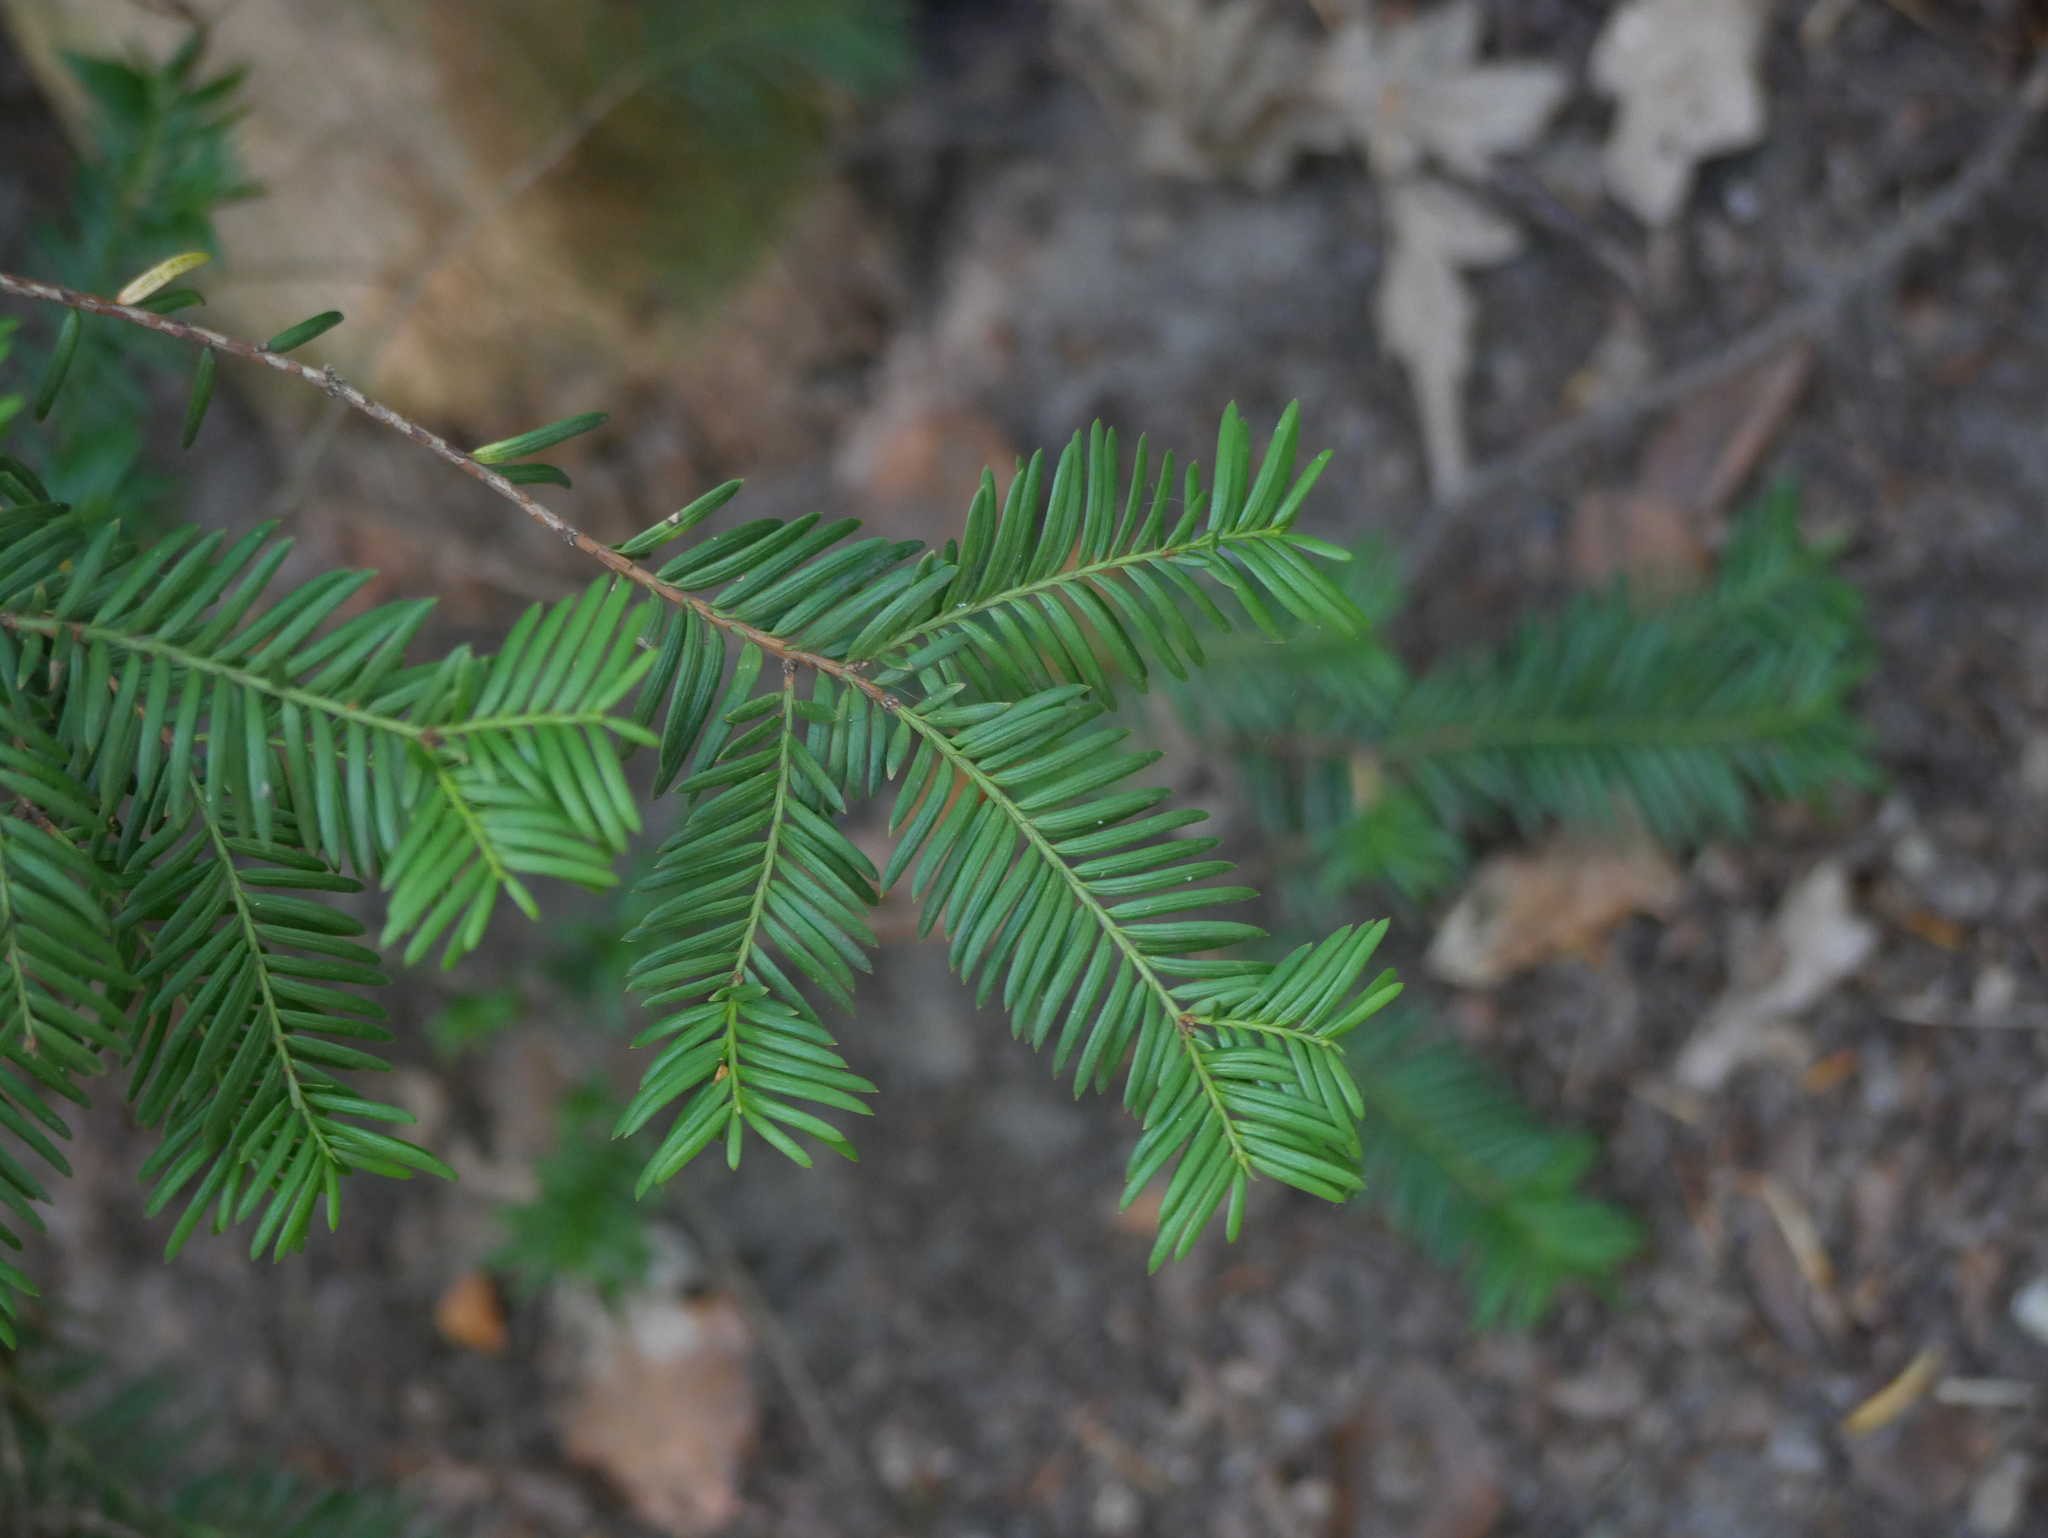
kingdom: Plantae
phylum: Tracheophyta
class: Pinopsida
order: Pinales
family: Taxaceae
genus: Taxus
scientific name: Taxus baccata
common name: Yew
